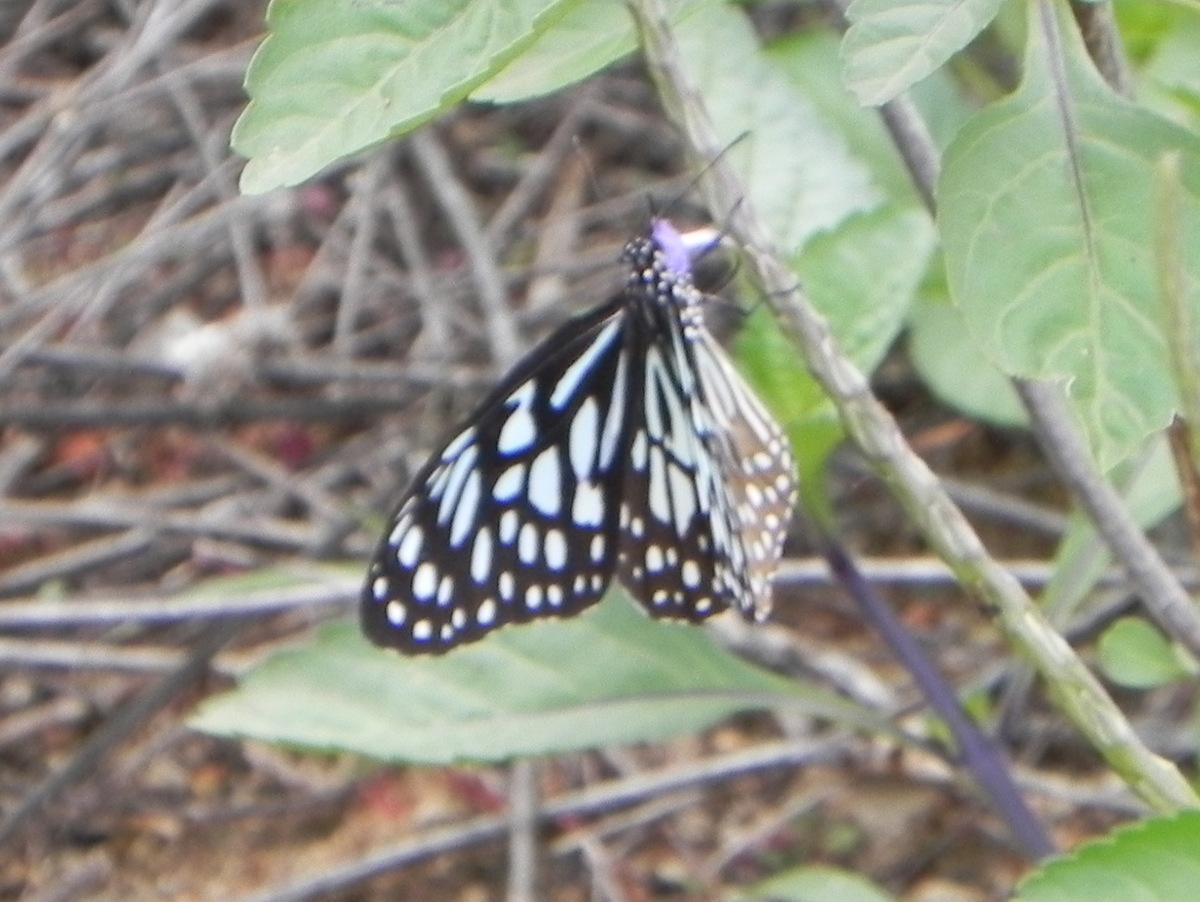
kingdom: Animalia
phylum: Arthropoda
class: Insecta
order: Lepidoptera
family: Nymphalidae
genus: Tirumala
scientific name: Tirumala septentrionis
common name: Dark blue tiger butterfly
